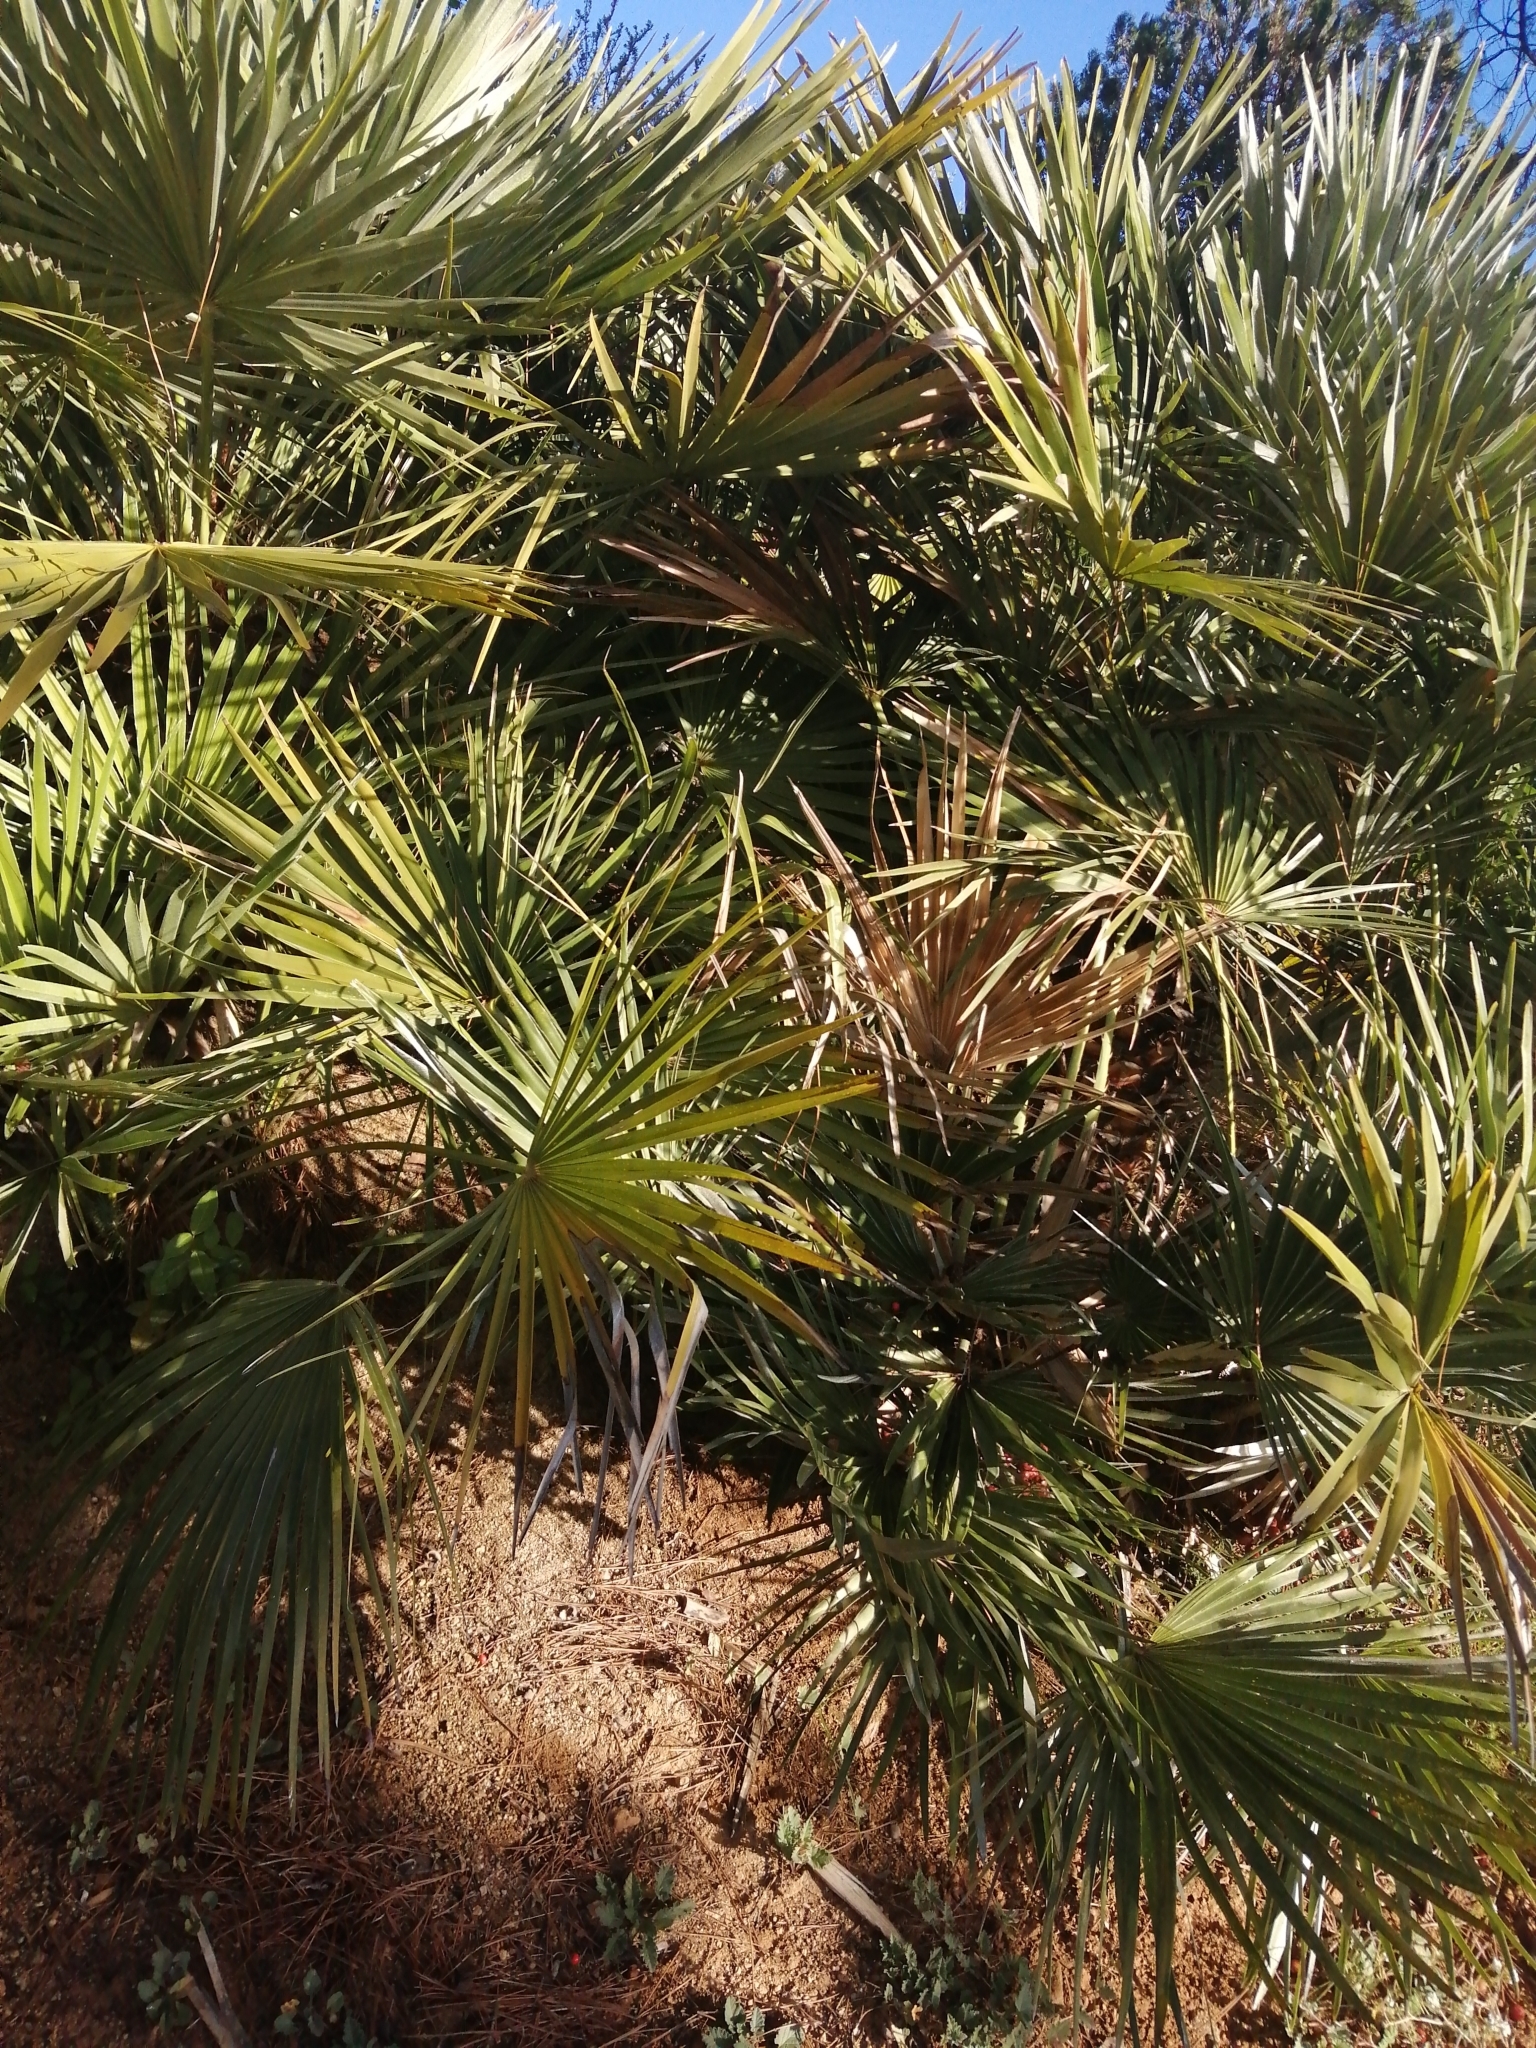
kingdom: Plantae
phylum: Tracheophyta
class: Liliopsida
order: Arecales
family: Arecaceae
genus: Chamaerops
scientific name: Chamaerops humilis
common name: Dwarf fan palm
